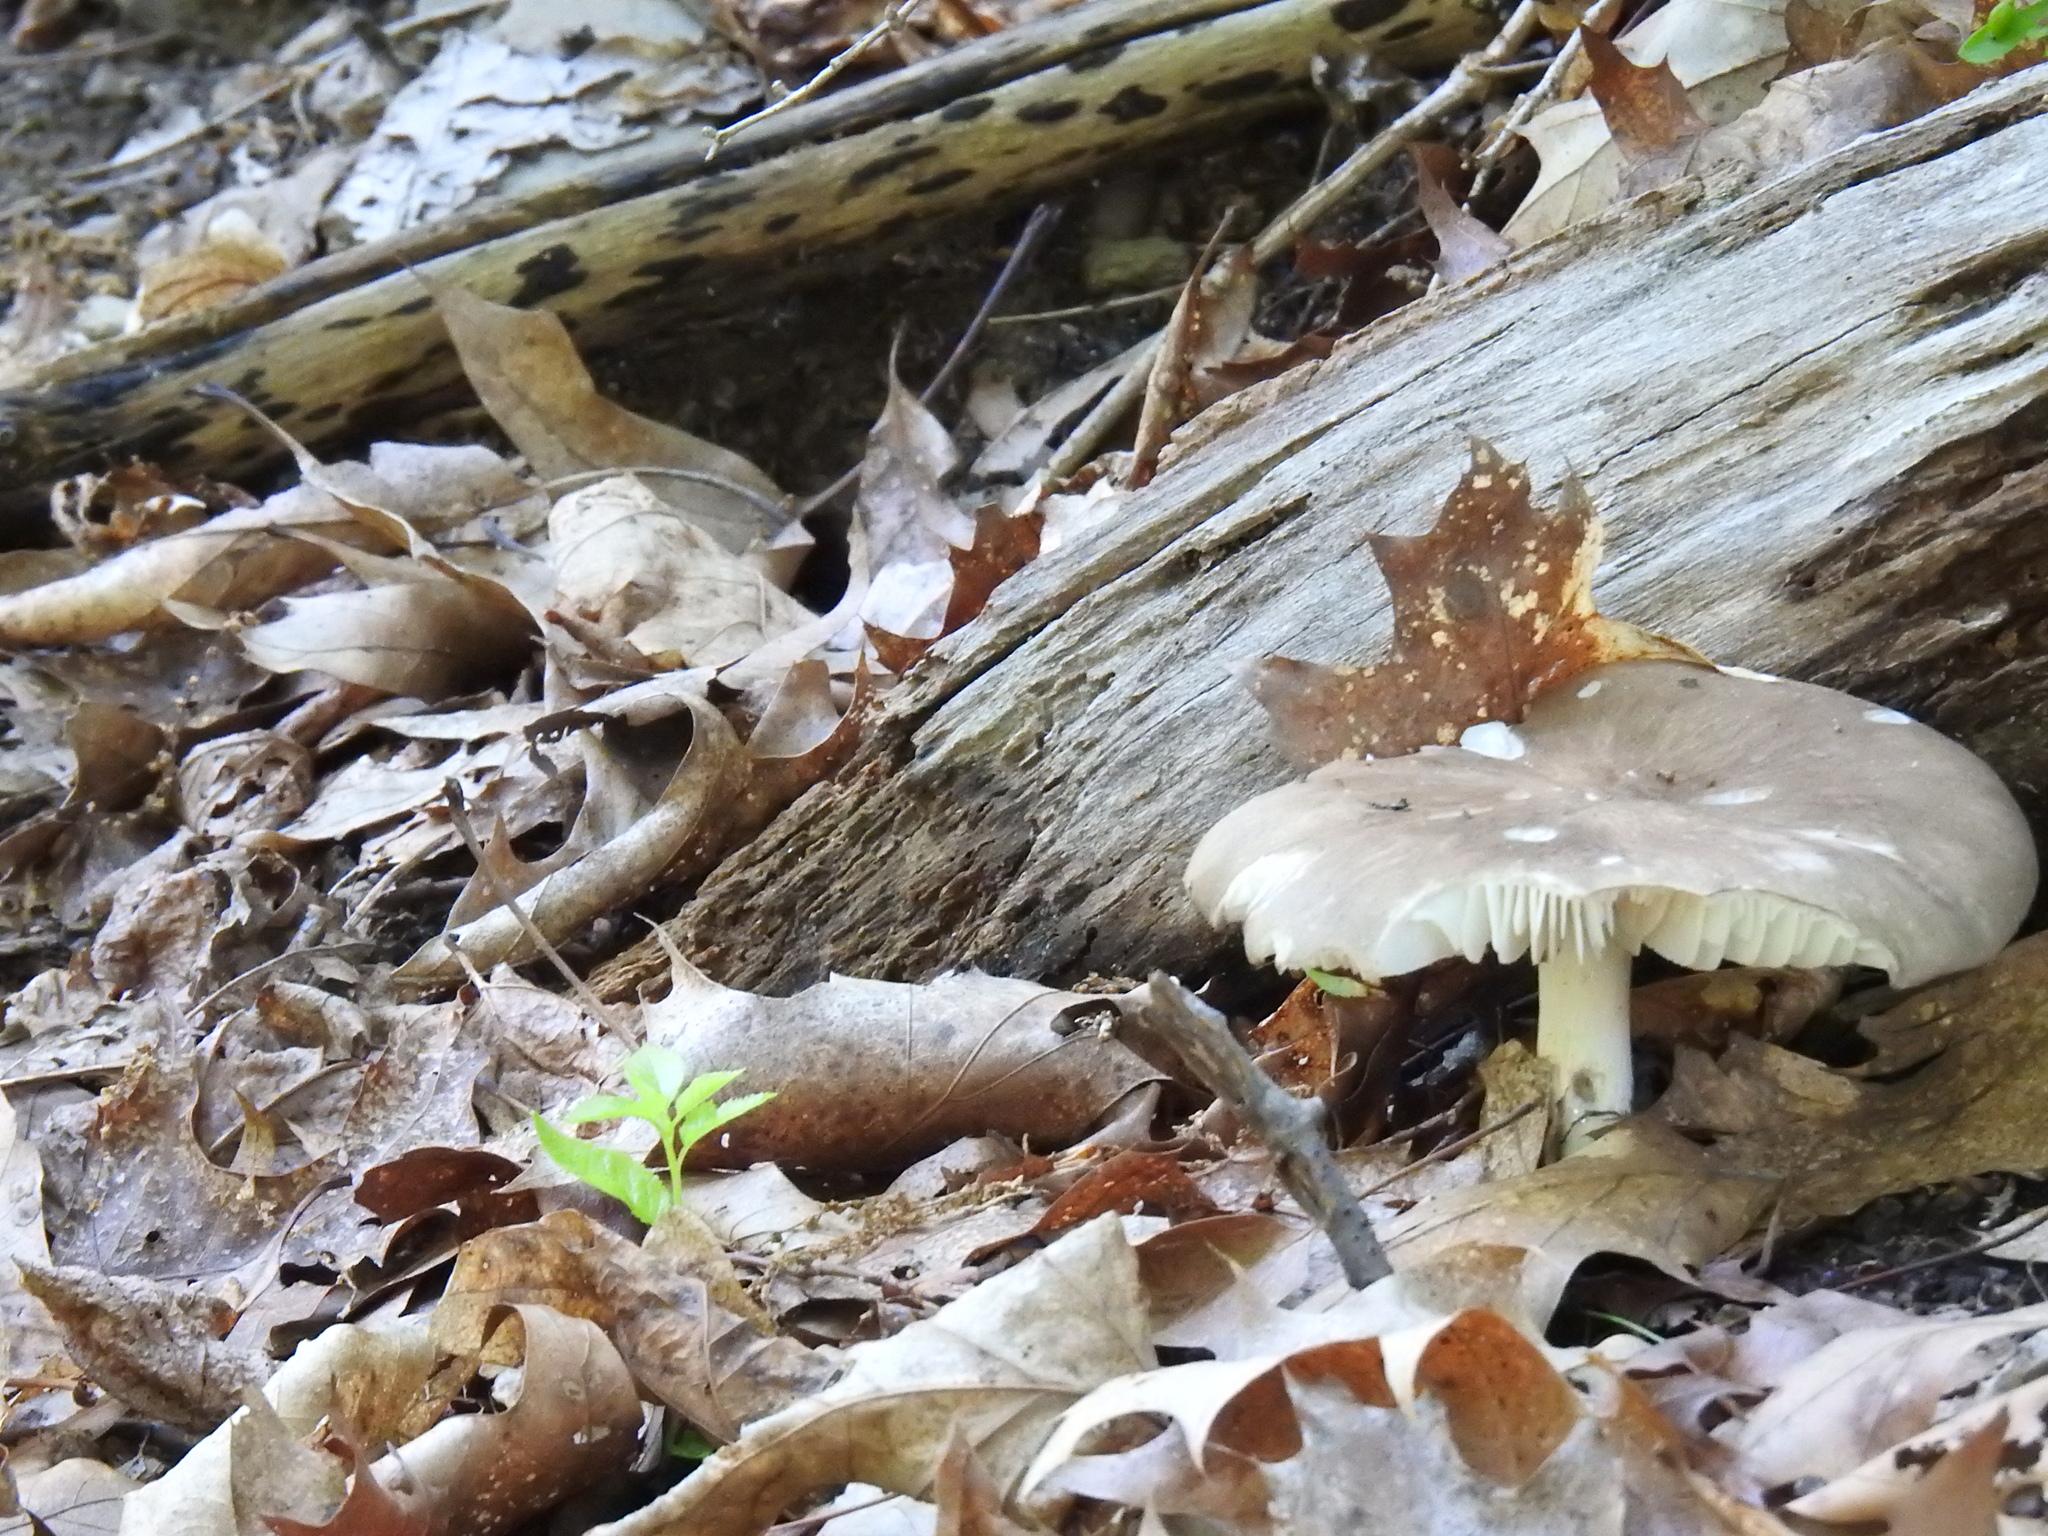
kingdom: Fungi
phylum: Basidiomycota
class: Agaricomycetes
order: Agaricales
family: Tricholomataceae
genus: Megacollybia
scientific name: Megacollybia rodmanii
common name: Eastern american platterful mushroom
